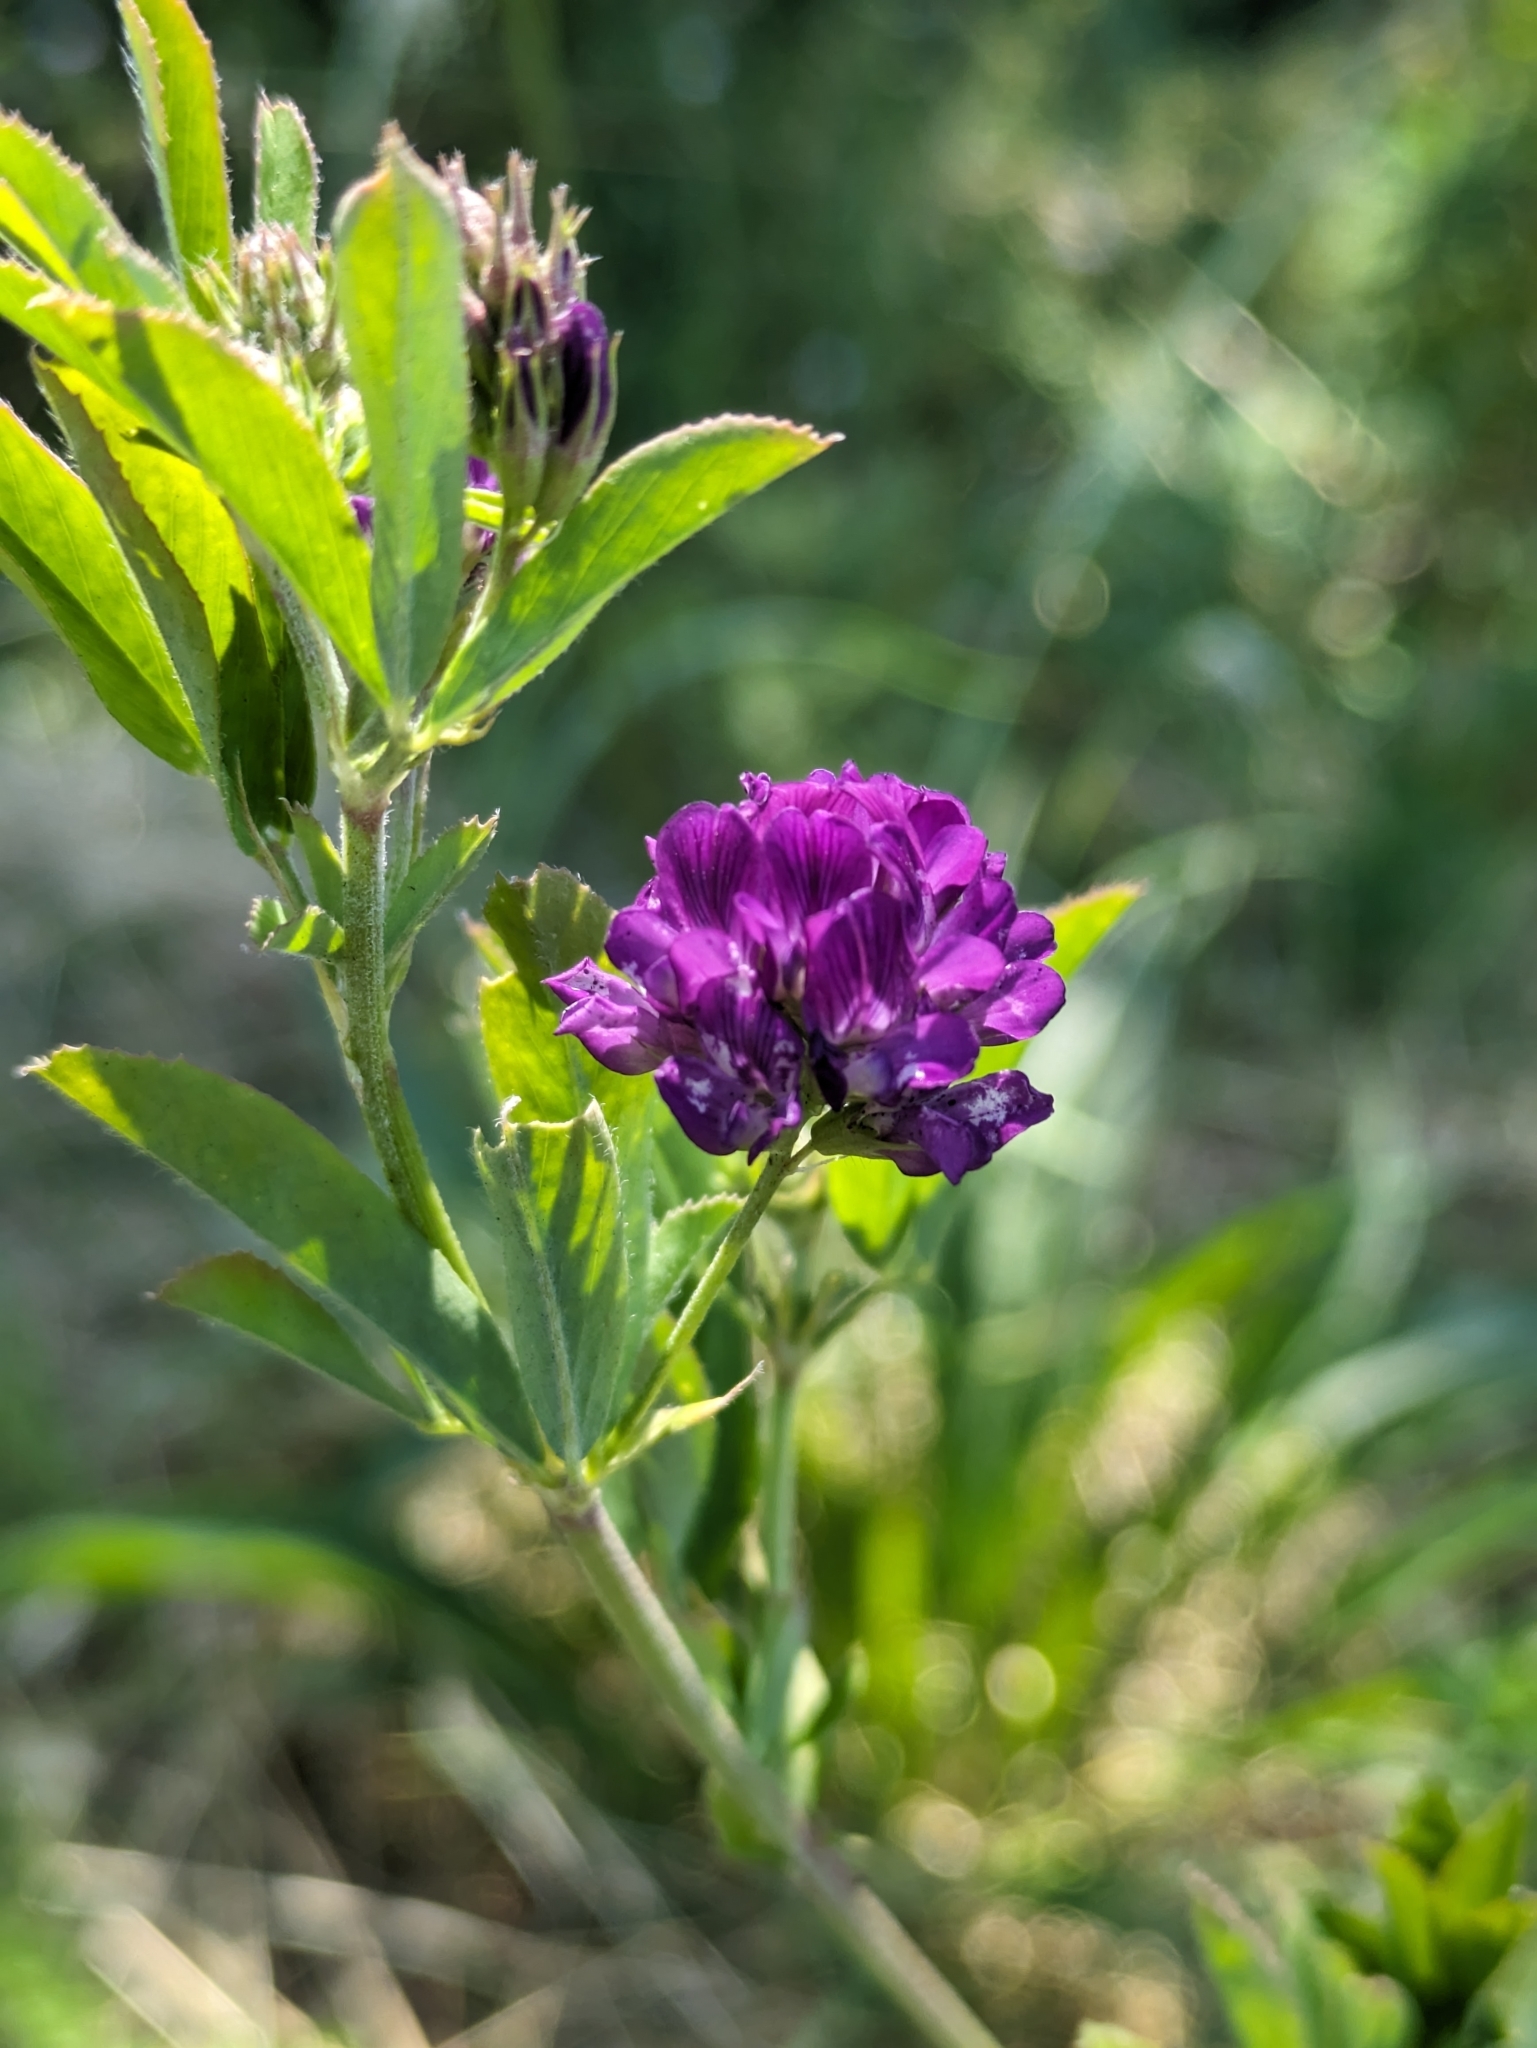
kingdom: Plantae
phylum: Tracheophyta
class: Magnoliopsida
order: Fabales
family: Fabaceae
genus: Medicago
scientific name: Medicago sativa
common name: Alfalfa
